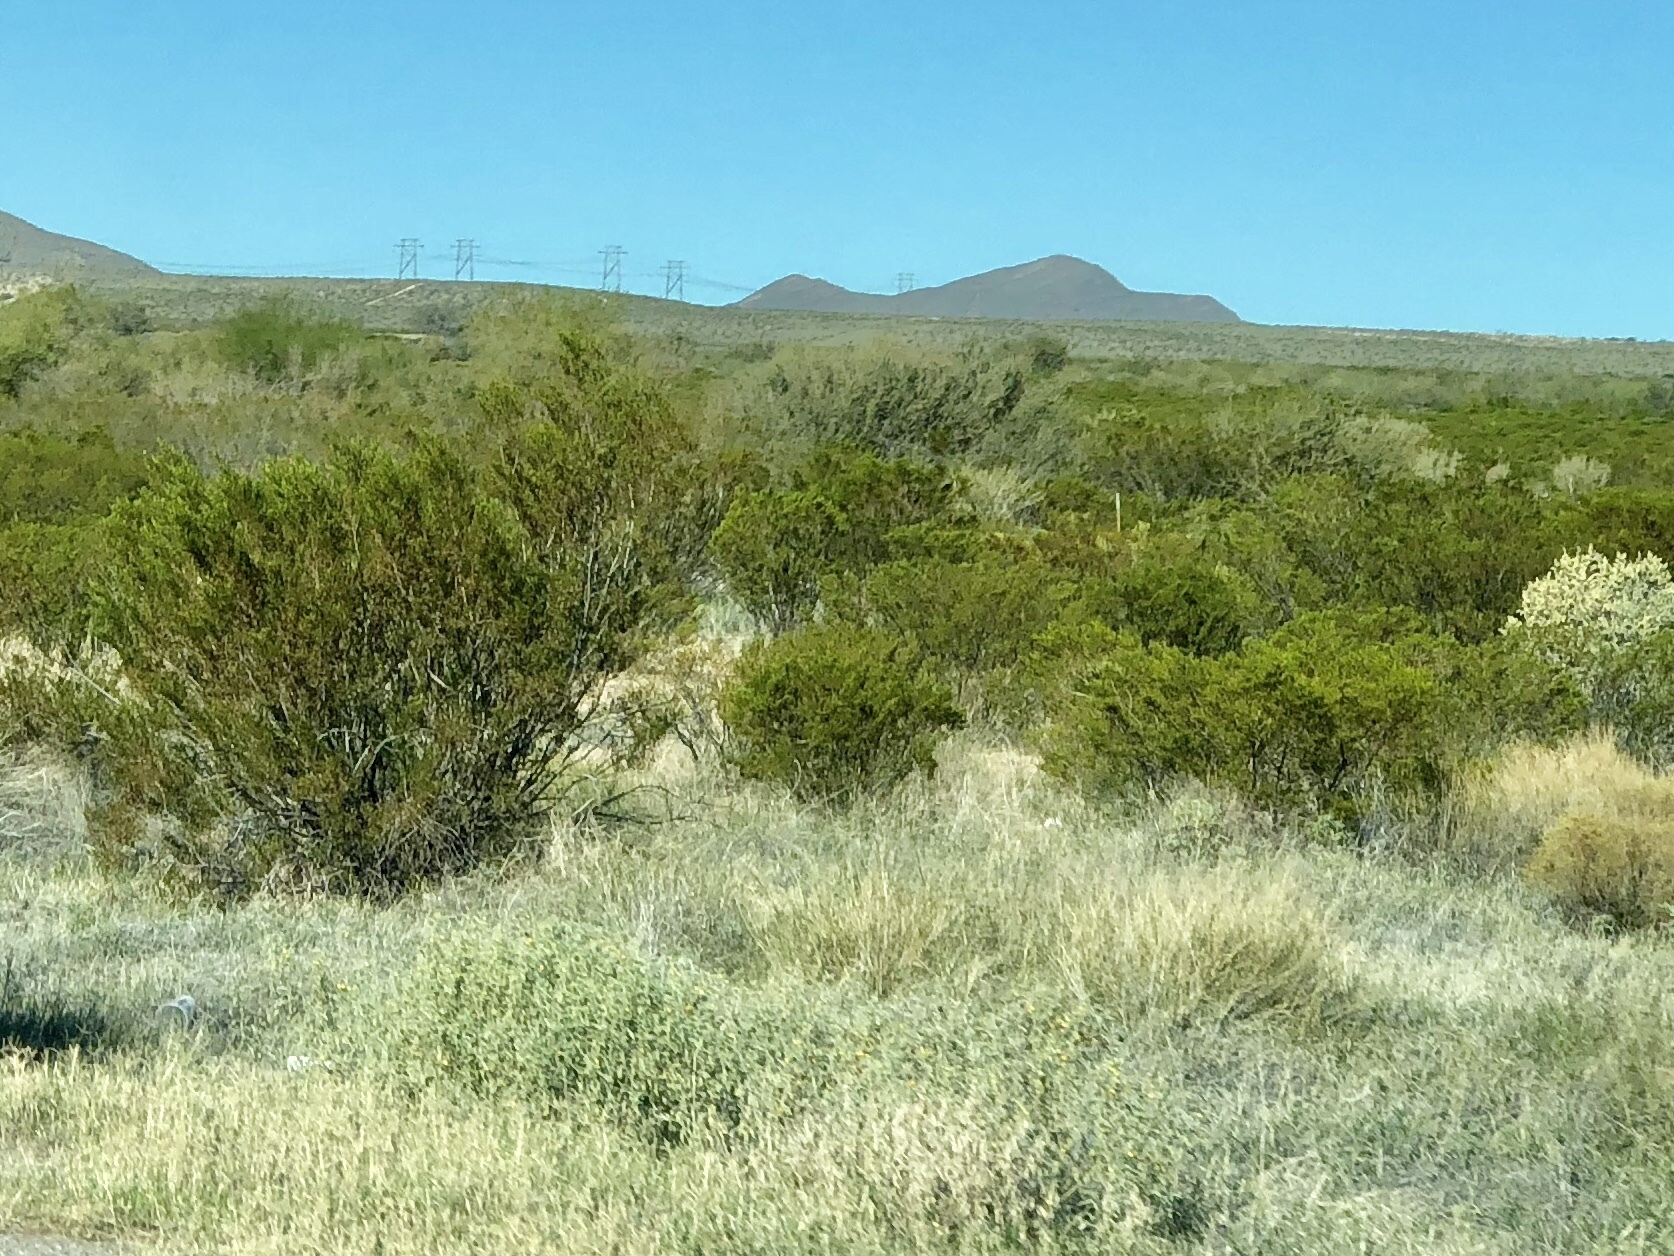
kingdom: Plantae
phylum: Tracheophyta
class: Magnoliopsida
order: Zygophyllales
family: Zygophyllaceae
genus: Larrea
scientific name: Larrea tridentata
